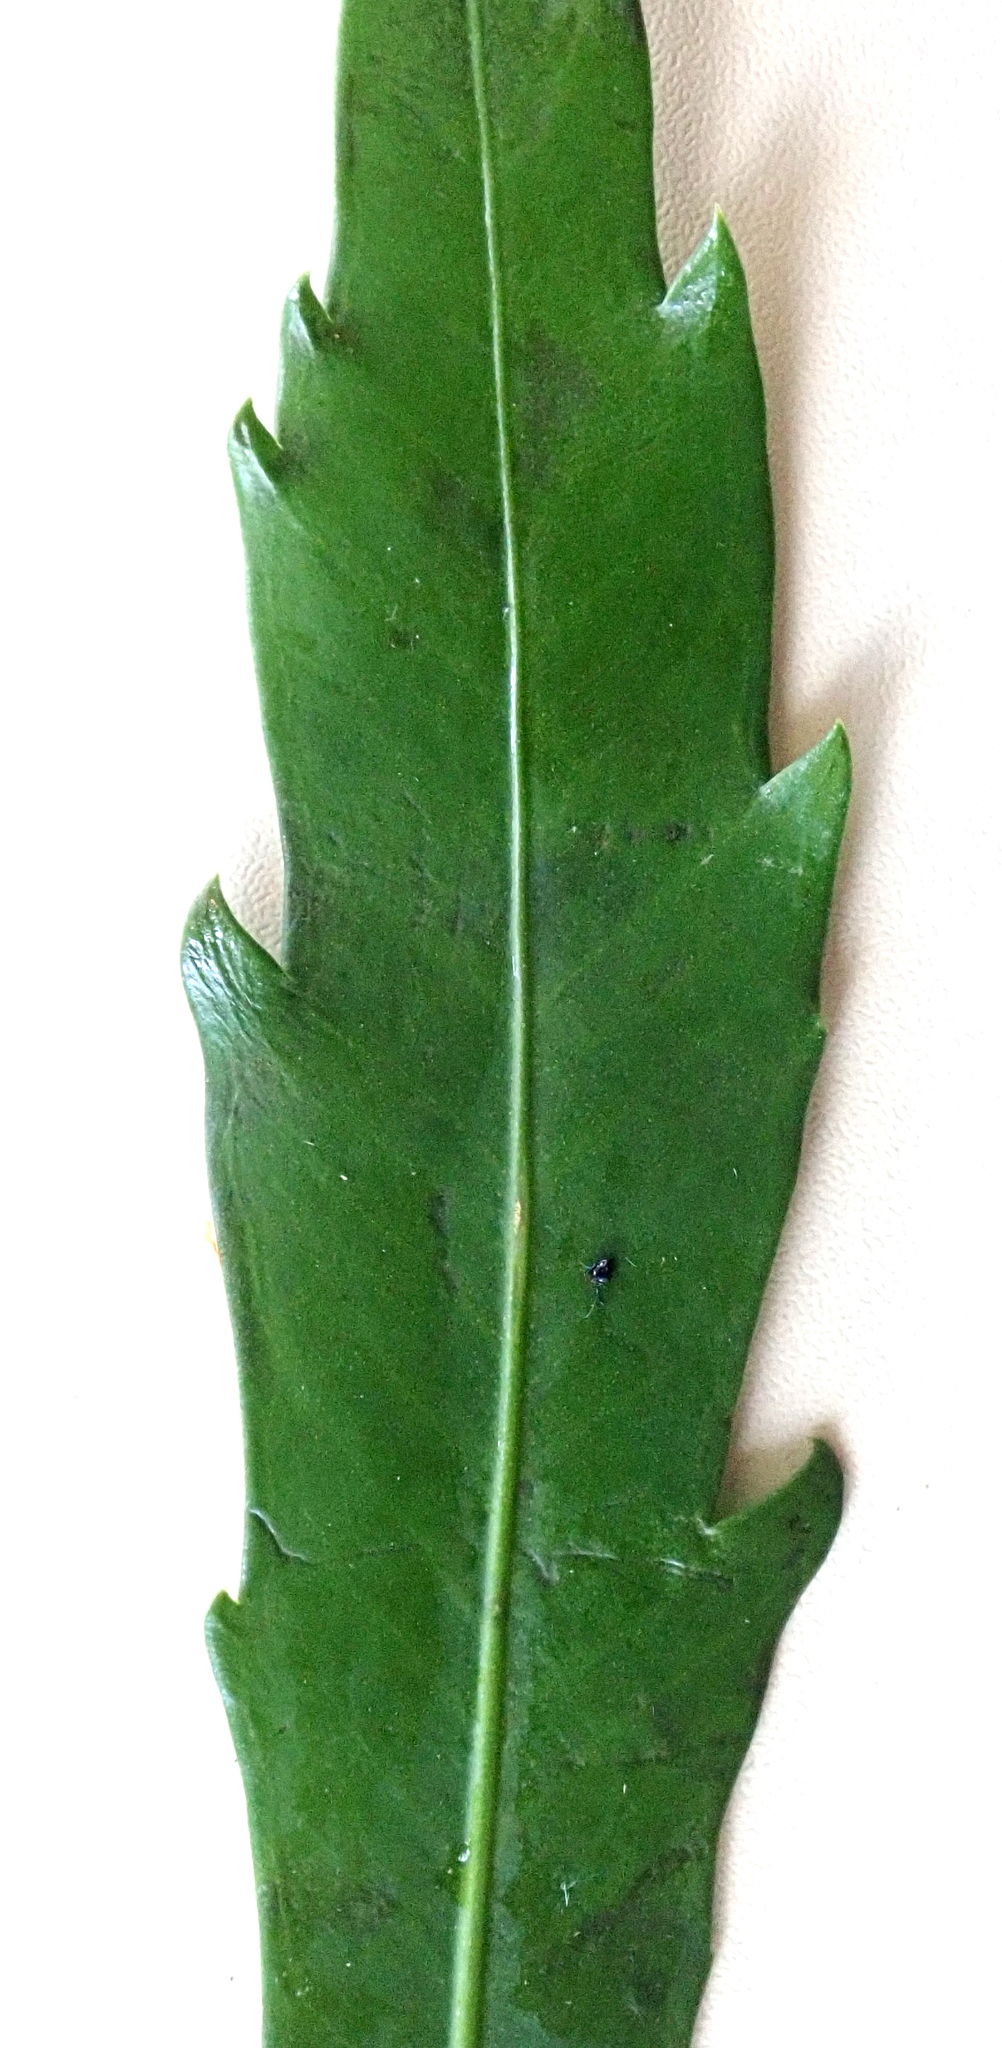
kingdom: Plantae
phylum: Tracheophyta
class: Magnoliopsida
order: Apiales
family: Araliaceae
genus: Pseudopanax
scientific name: Pseudopanax
